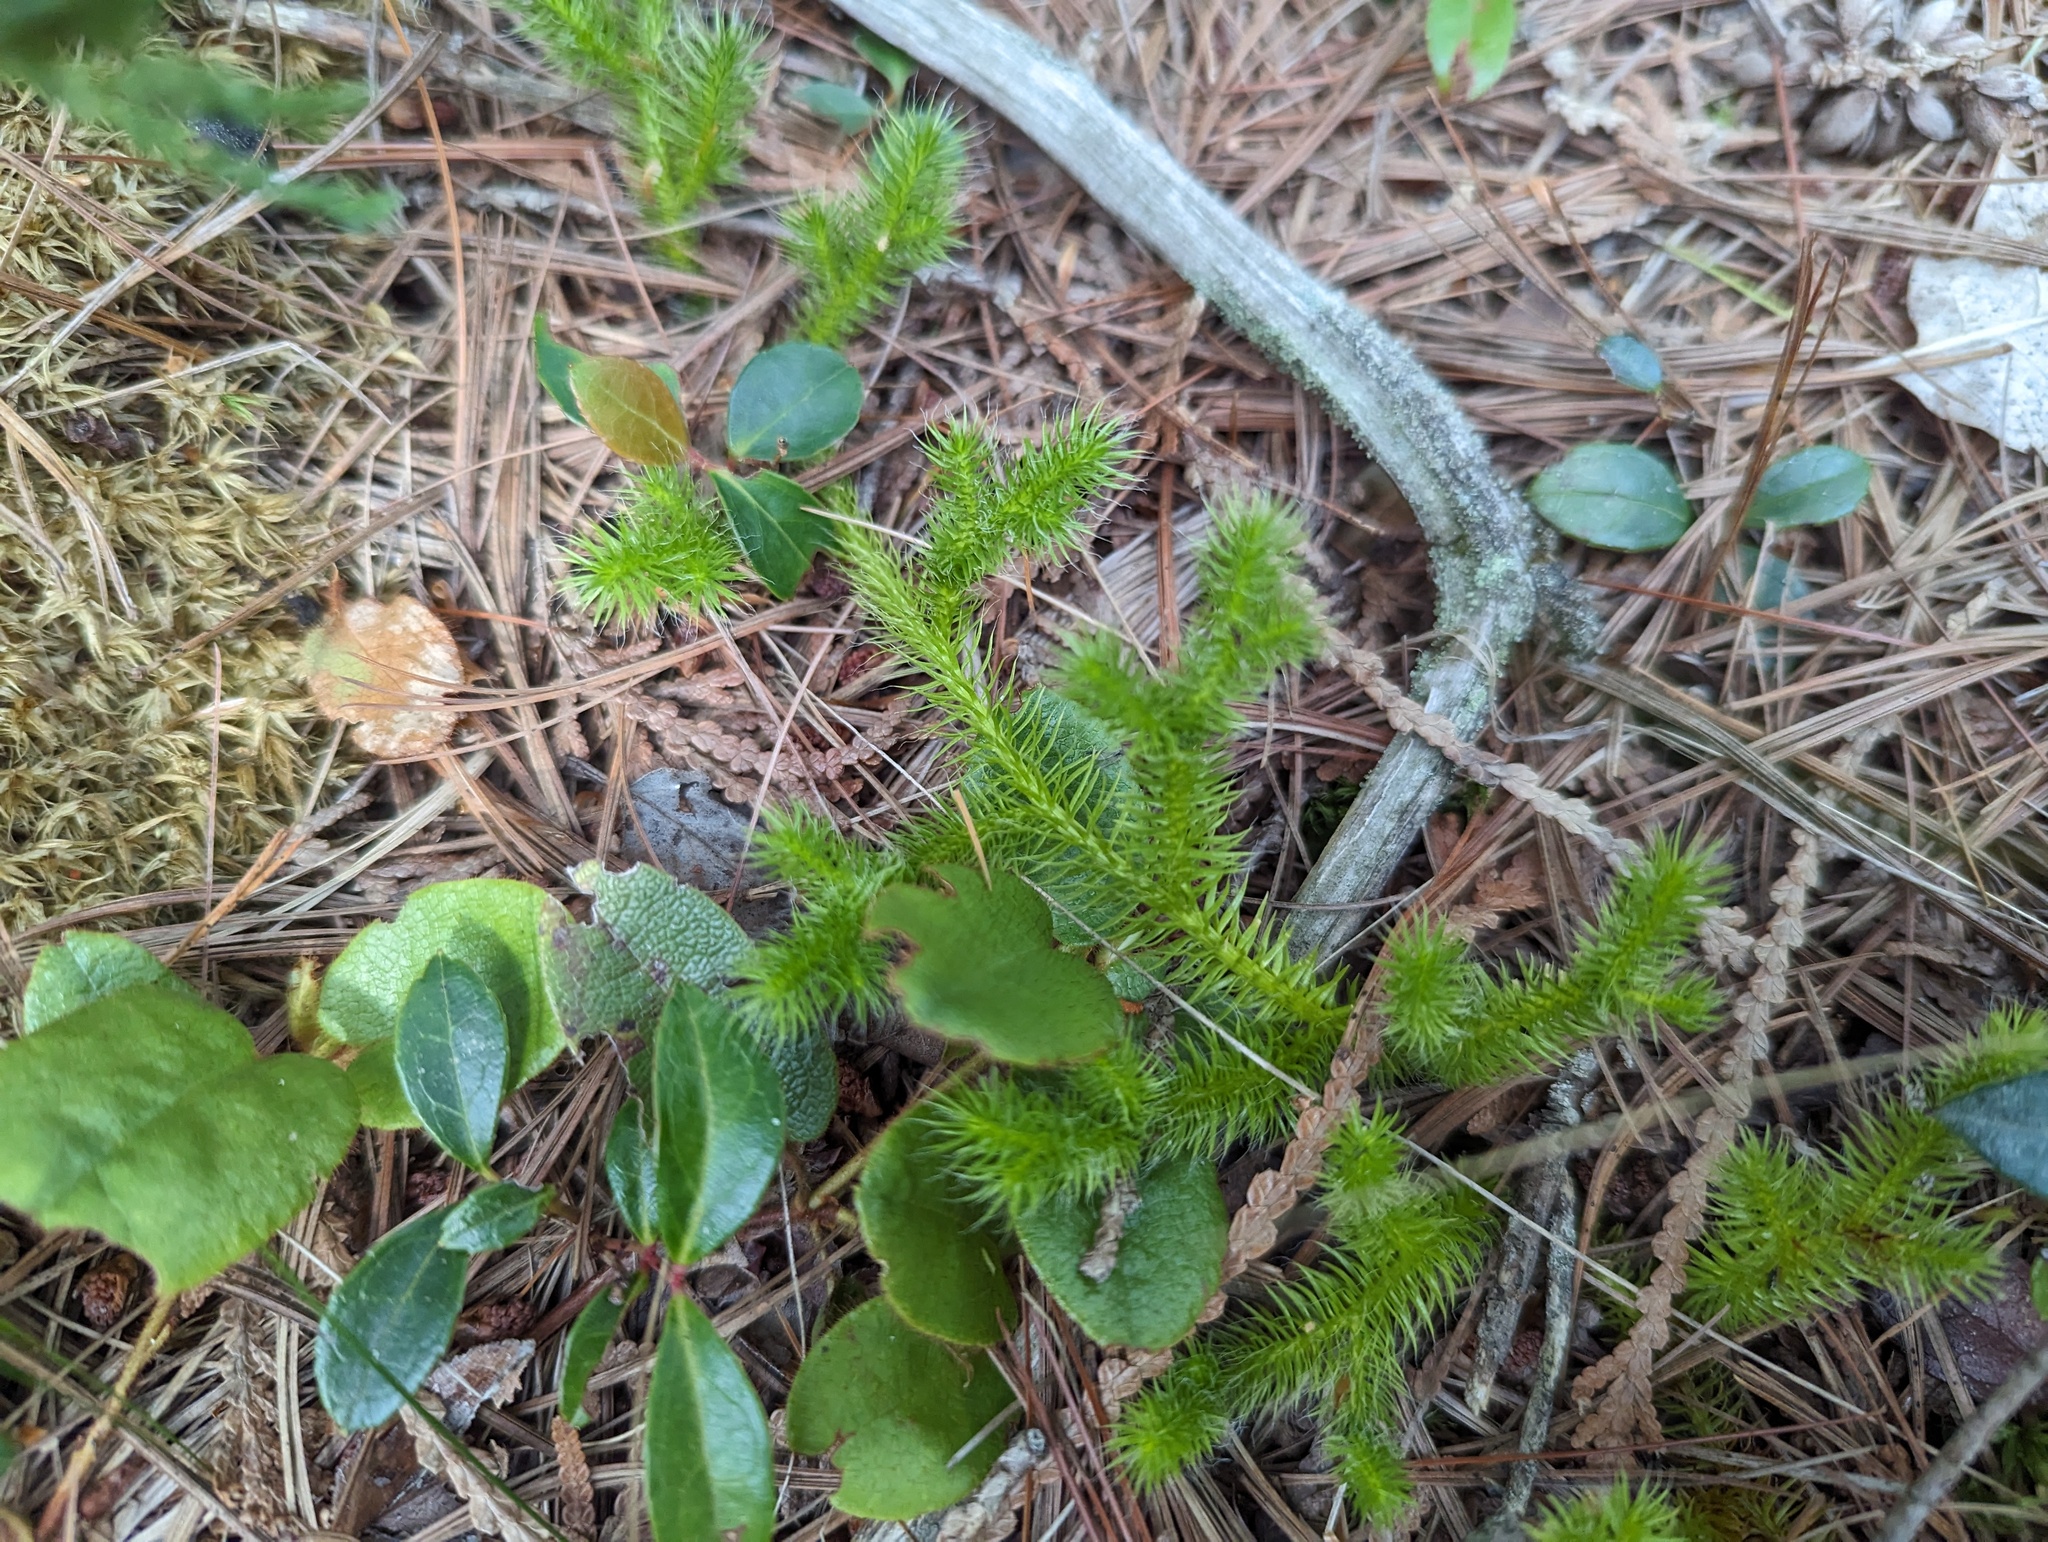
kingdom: Plantae
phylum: Tracheophyta
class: Lycopodiopsida
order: Lycopodiales
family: Lycopodiaceae
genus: Lycopodium
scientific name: Lycopodium clavatum
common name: Stag's-horn clubmoss
